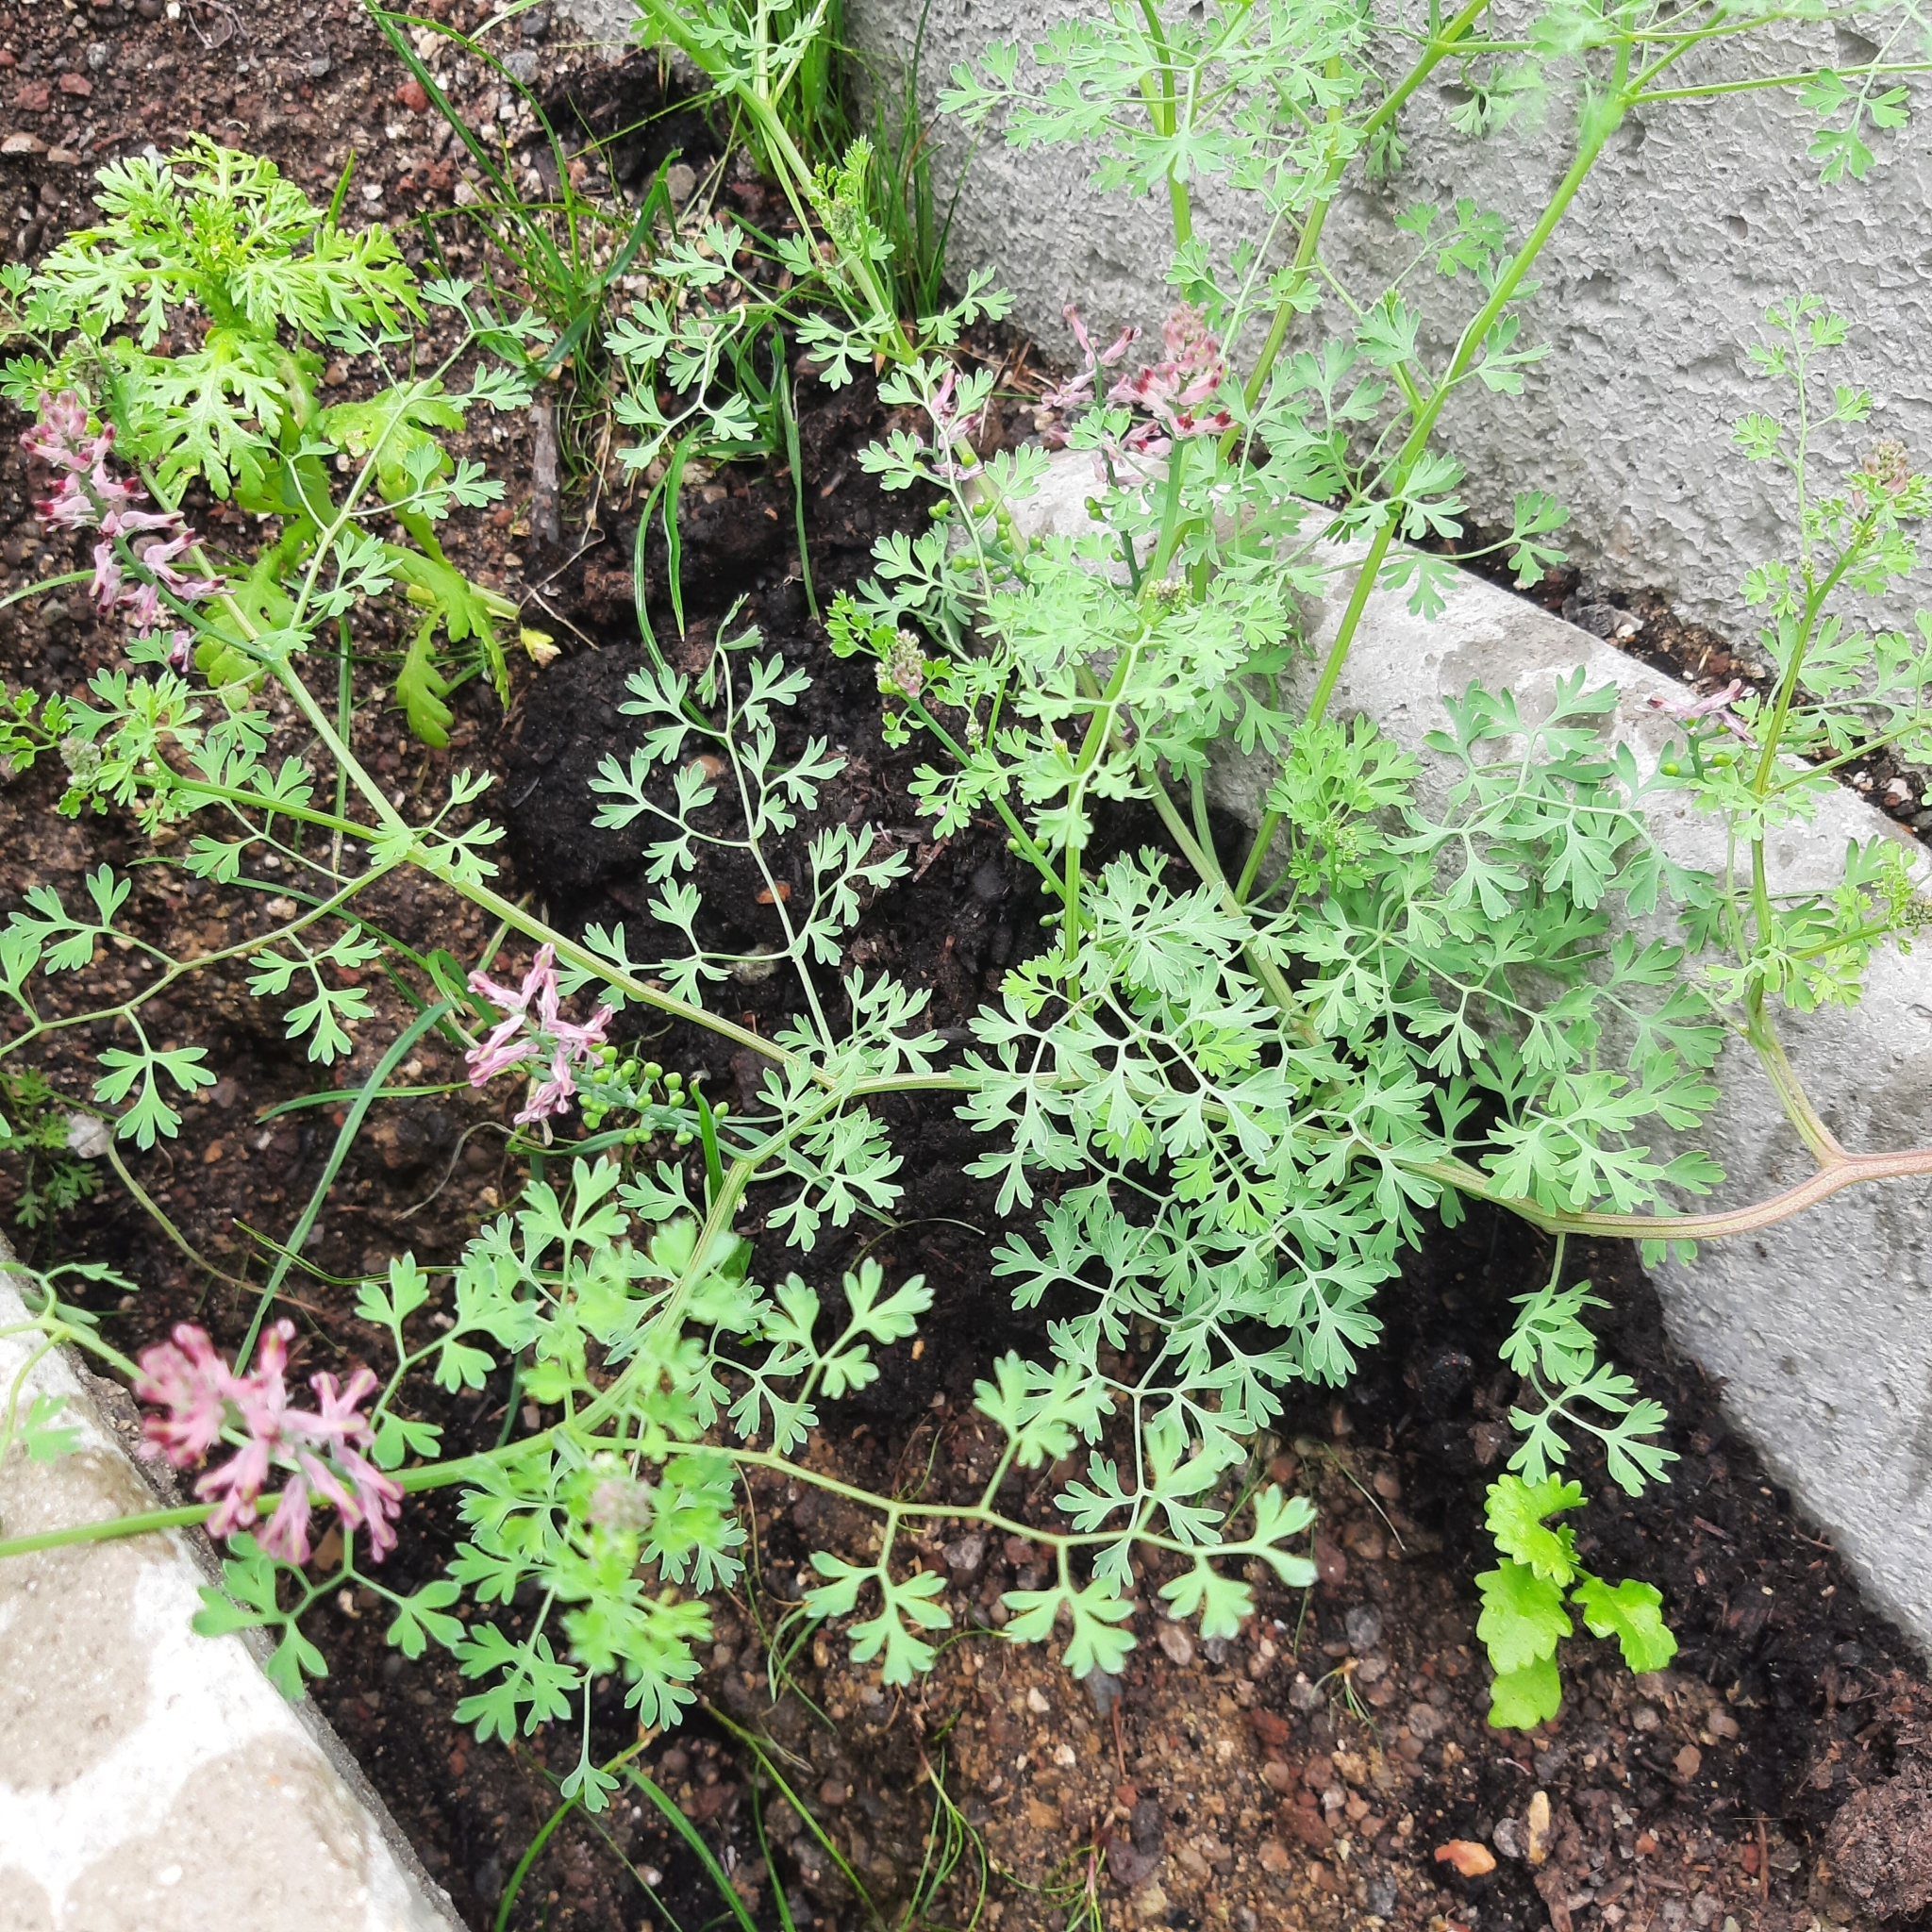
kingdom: Plantae
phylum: Tracheophyta
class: Magnoliopsida
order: Ranunculales
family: Papaveraceae
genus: Fumaria
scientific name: Fumaria officinalis
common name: Common fumitory
